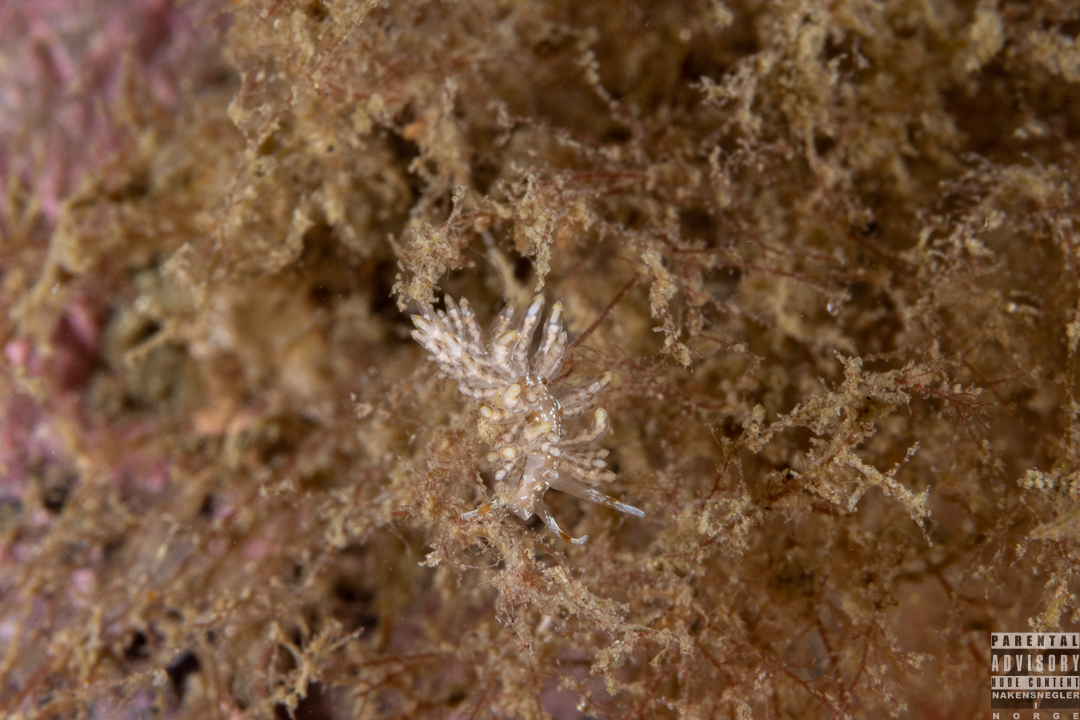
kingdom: Animalia
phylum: Mollusca
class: Gastropoda
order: Nudibranchia
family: Eubranchidae
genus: Eubranchus
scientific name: Eubranchus vittatus
